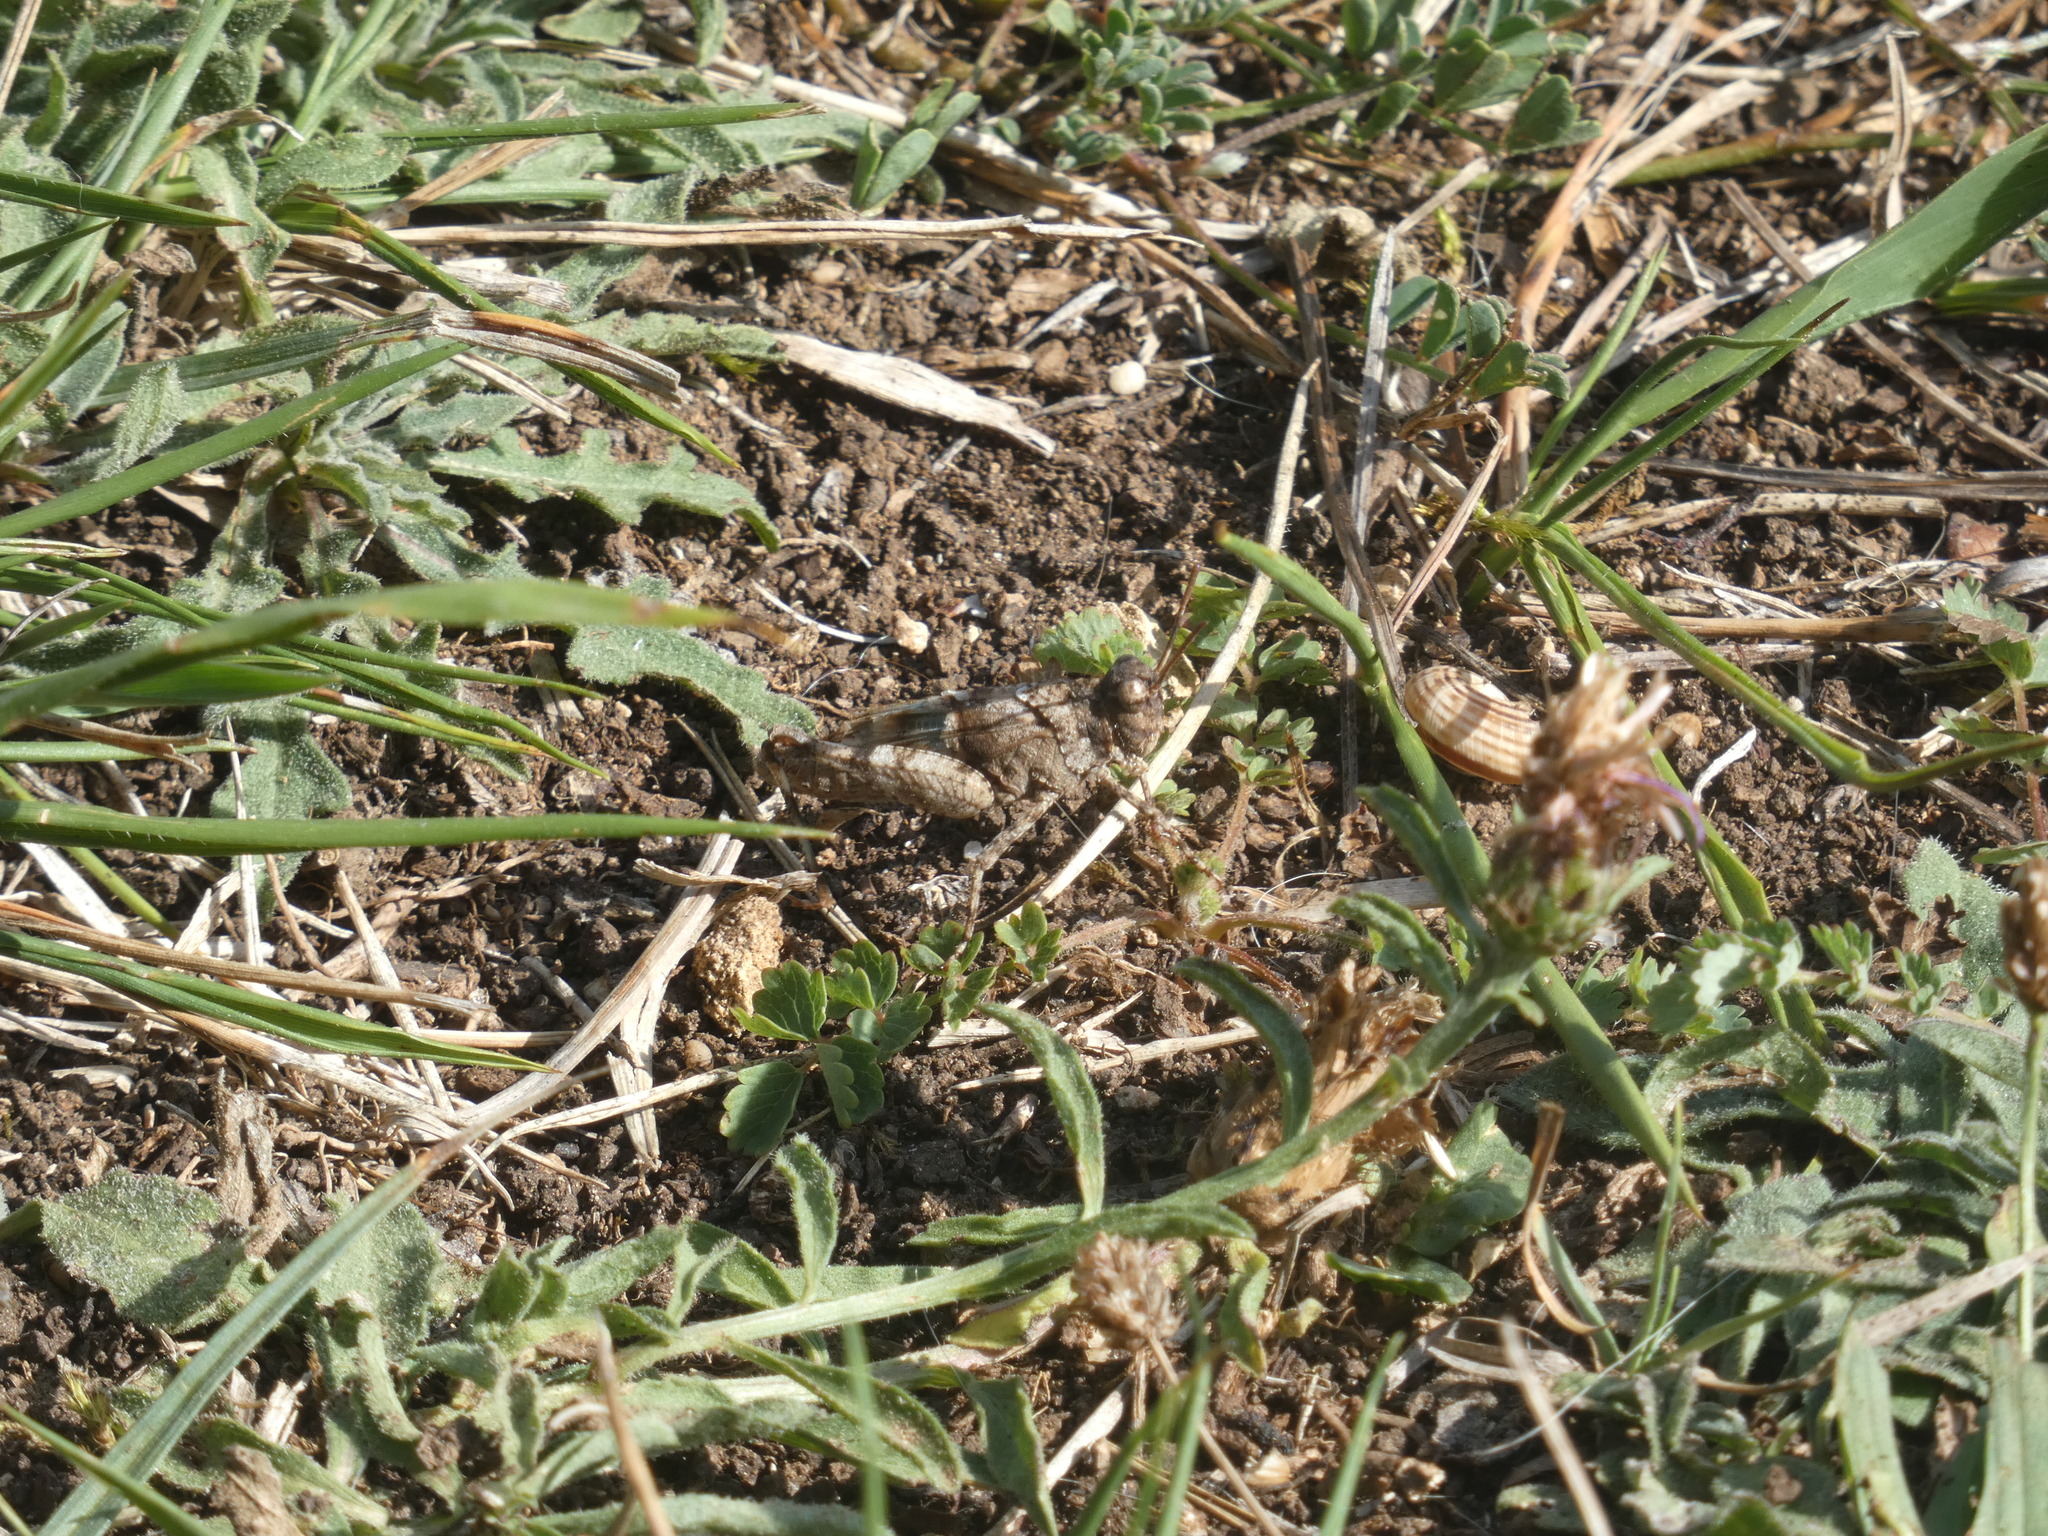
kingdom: Animalia
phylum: Arthropoda
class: Insecta
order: Orthoptera
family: Acrididae
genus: Oedipoda
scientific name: Oedipoda caerulescens
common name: Blue-winged grasshopper
